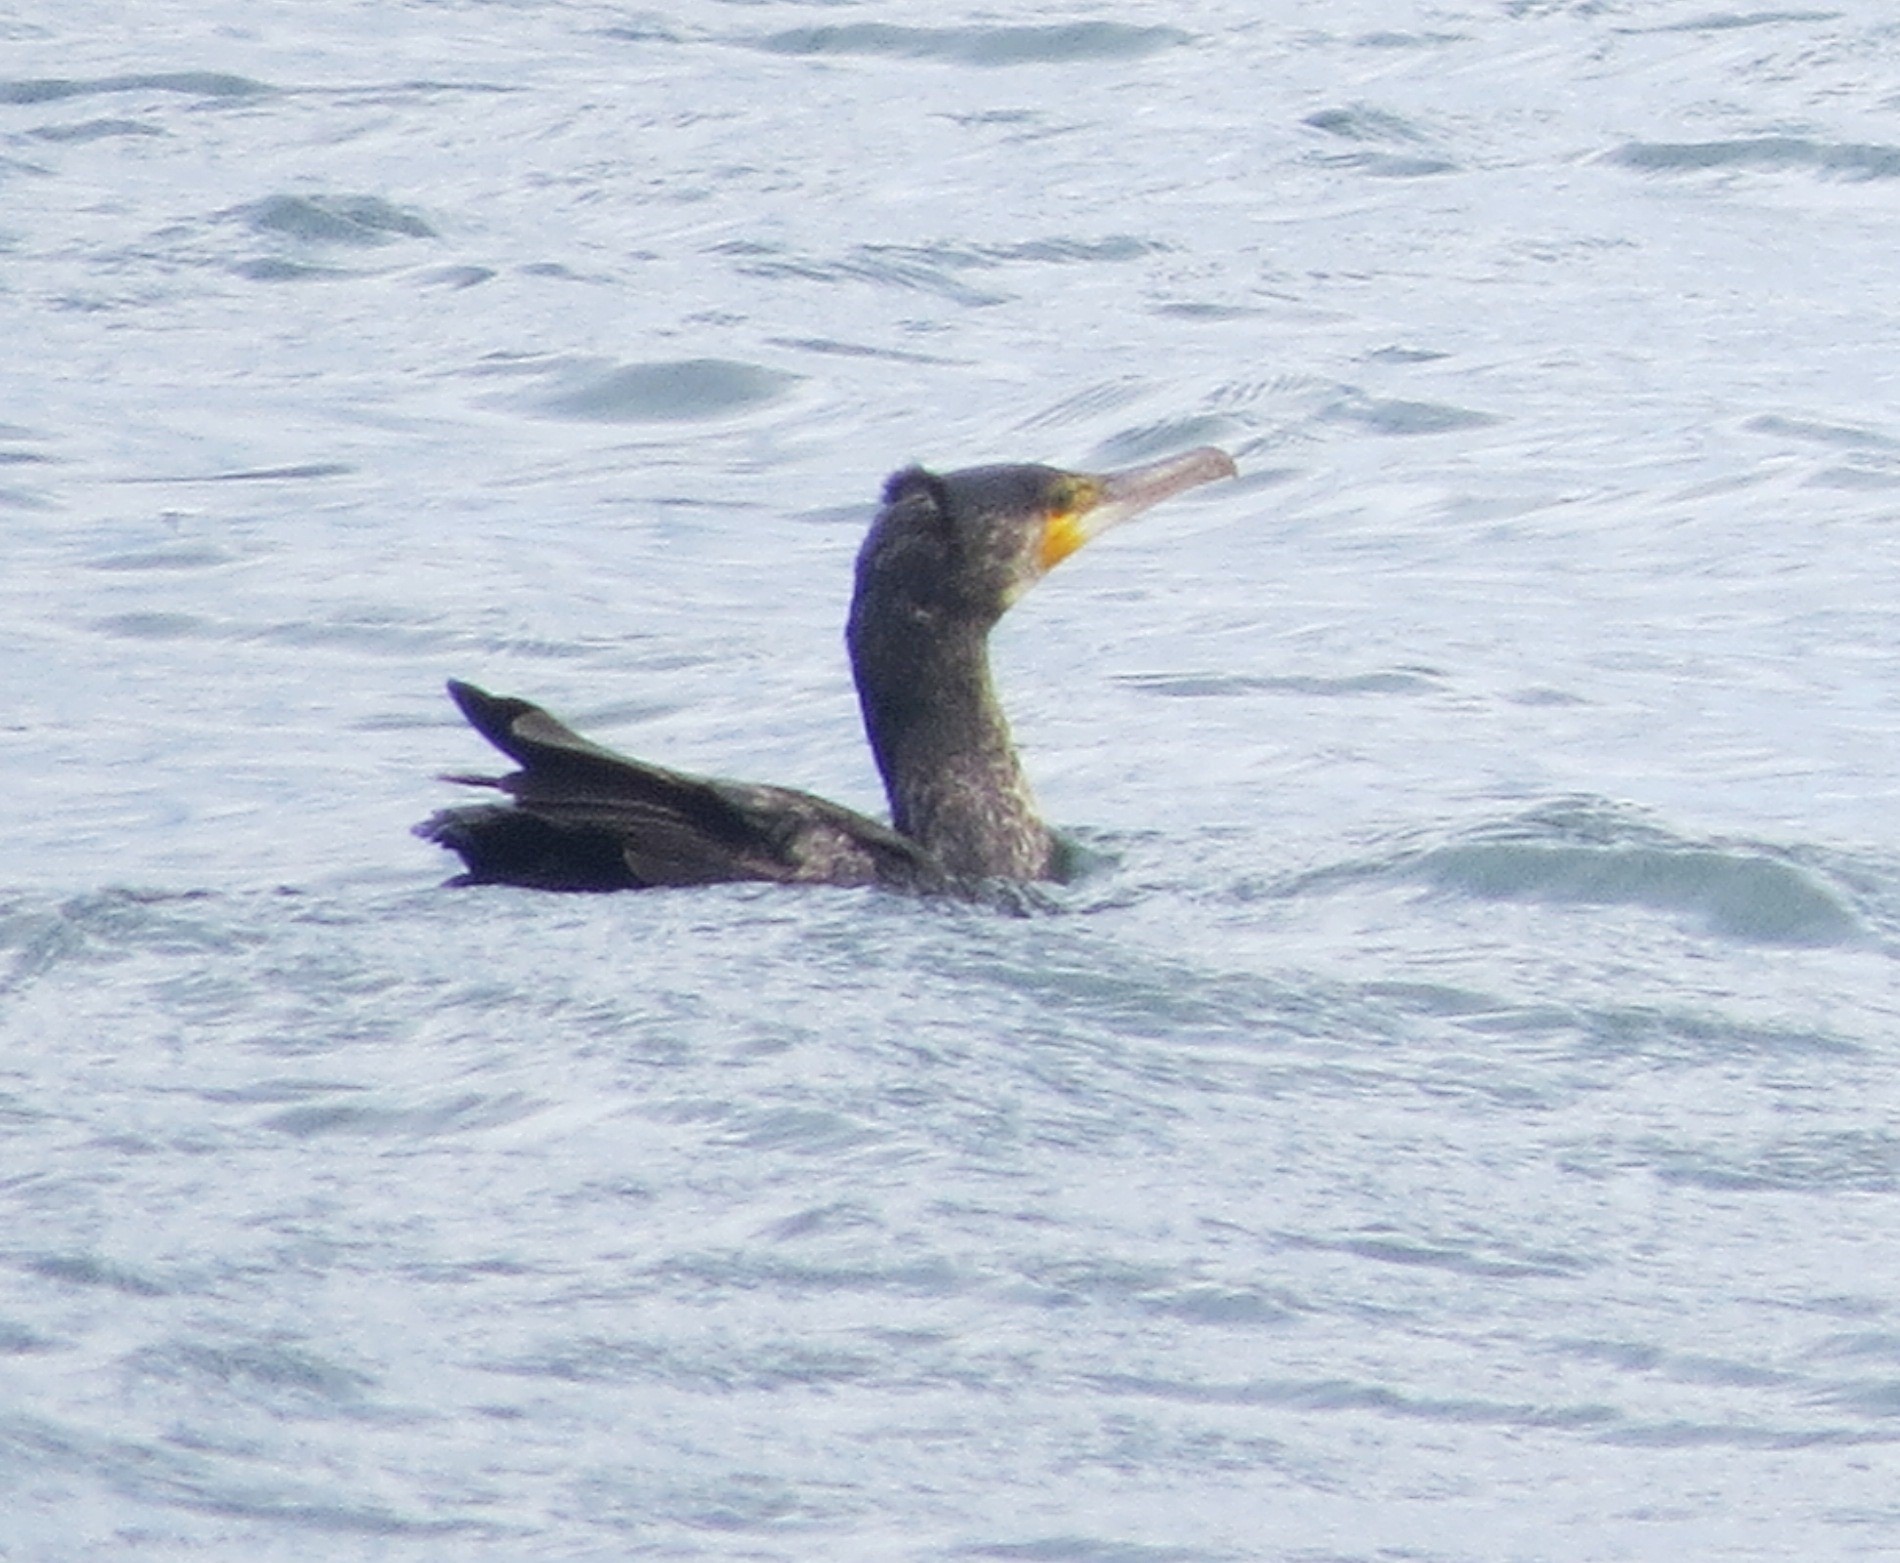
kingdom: Animalia
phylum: Chordata
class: Aves
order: Suliformes
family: Phalacrocoracidae
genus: Phalacrocorax
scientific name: Phalacrocorax carbo
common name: Great cormorant
